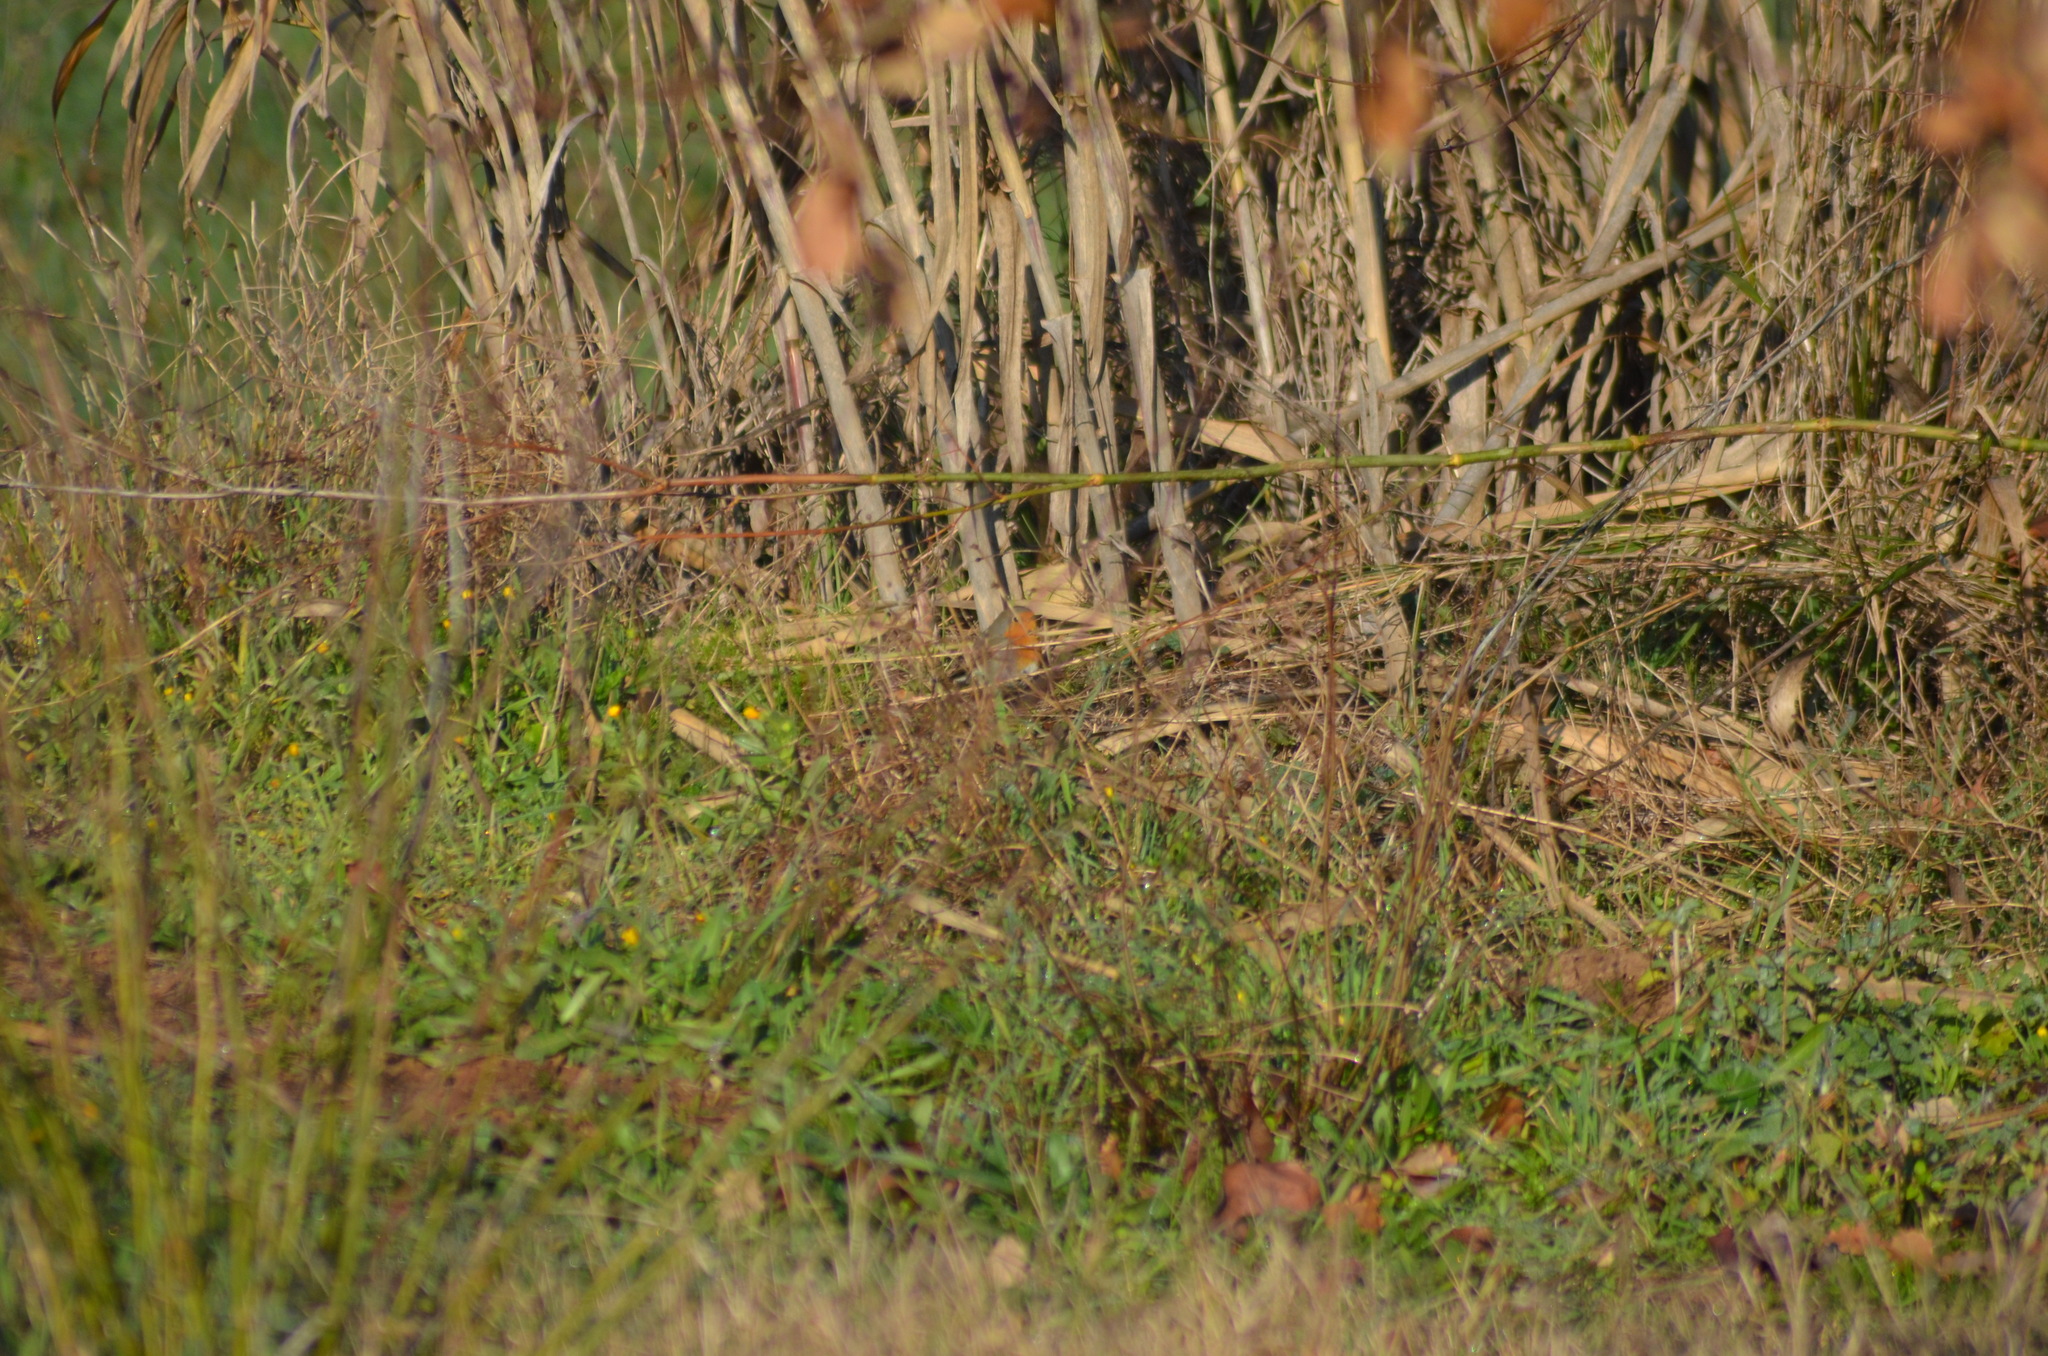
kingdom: Animalia
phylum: Chordata
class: Aves
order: Passeriformes
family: Muscicapidae
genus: Erithacus
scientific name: Erithacus rubecula
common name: European robin
